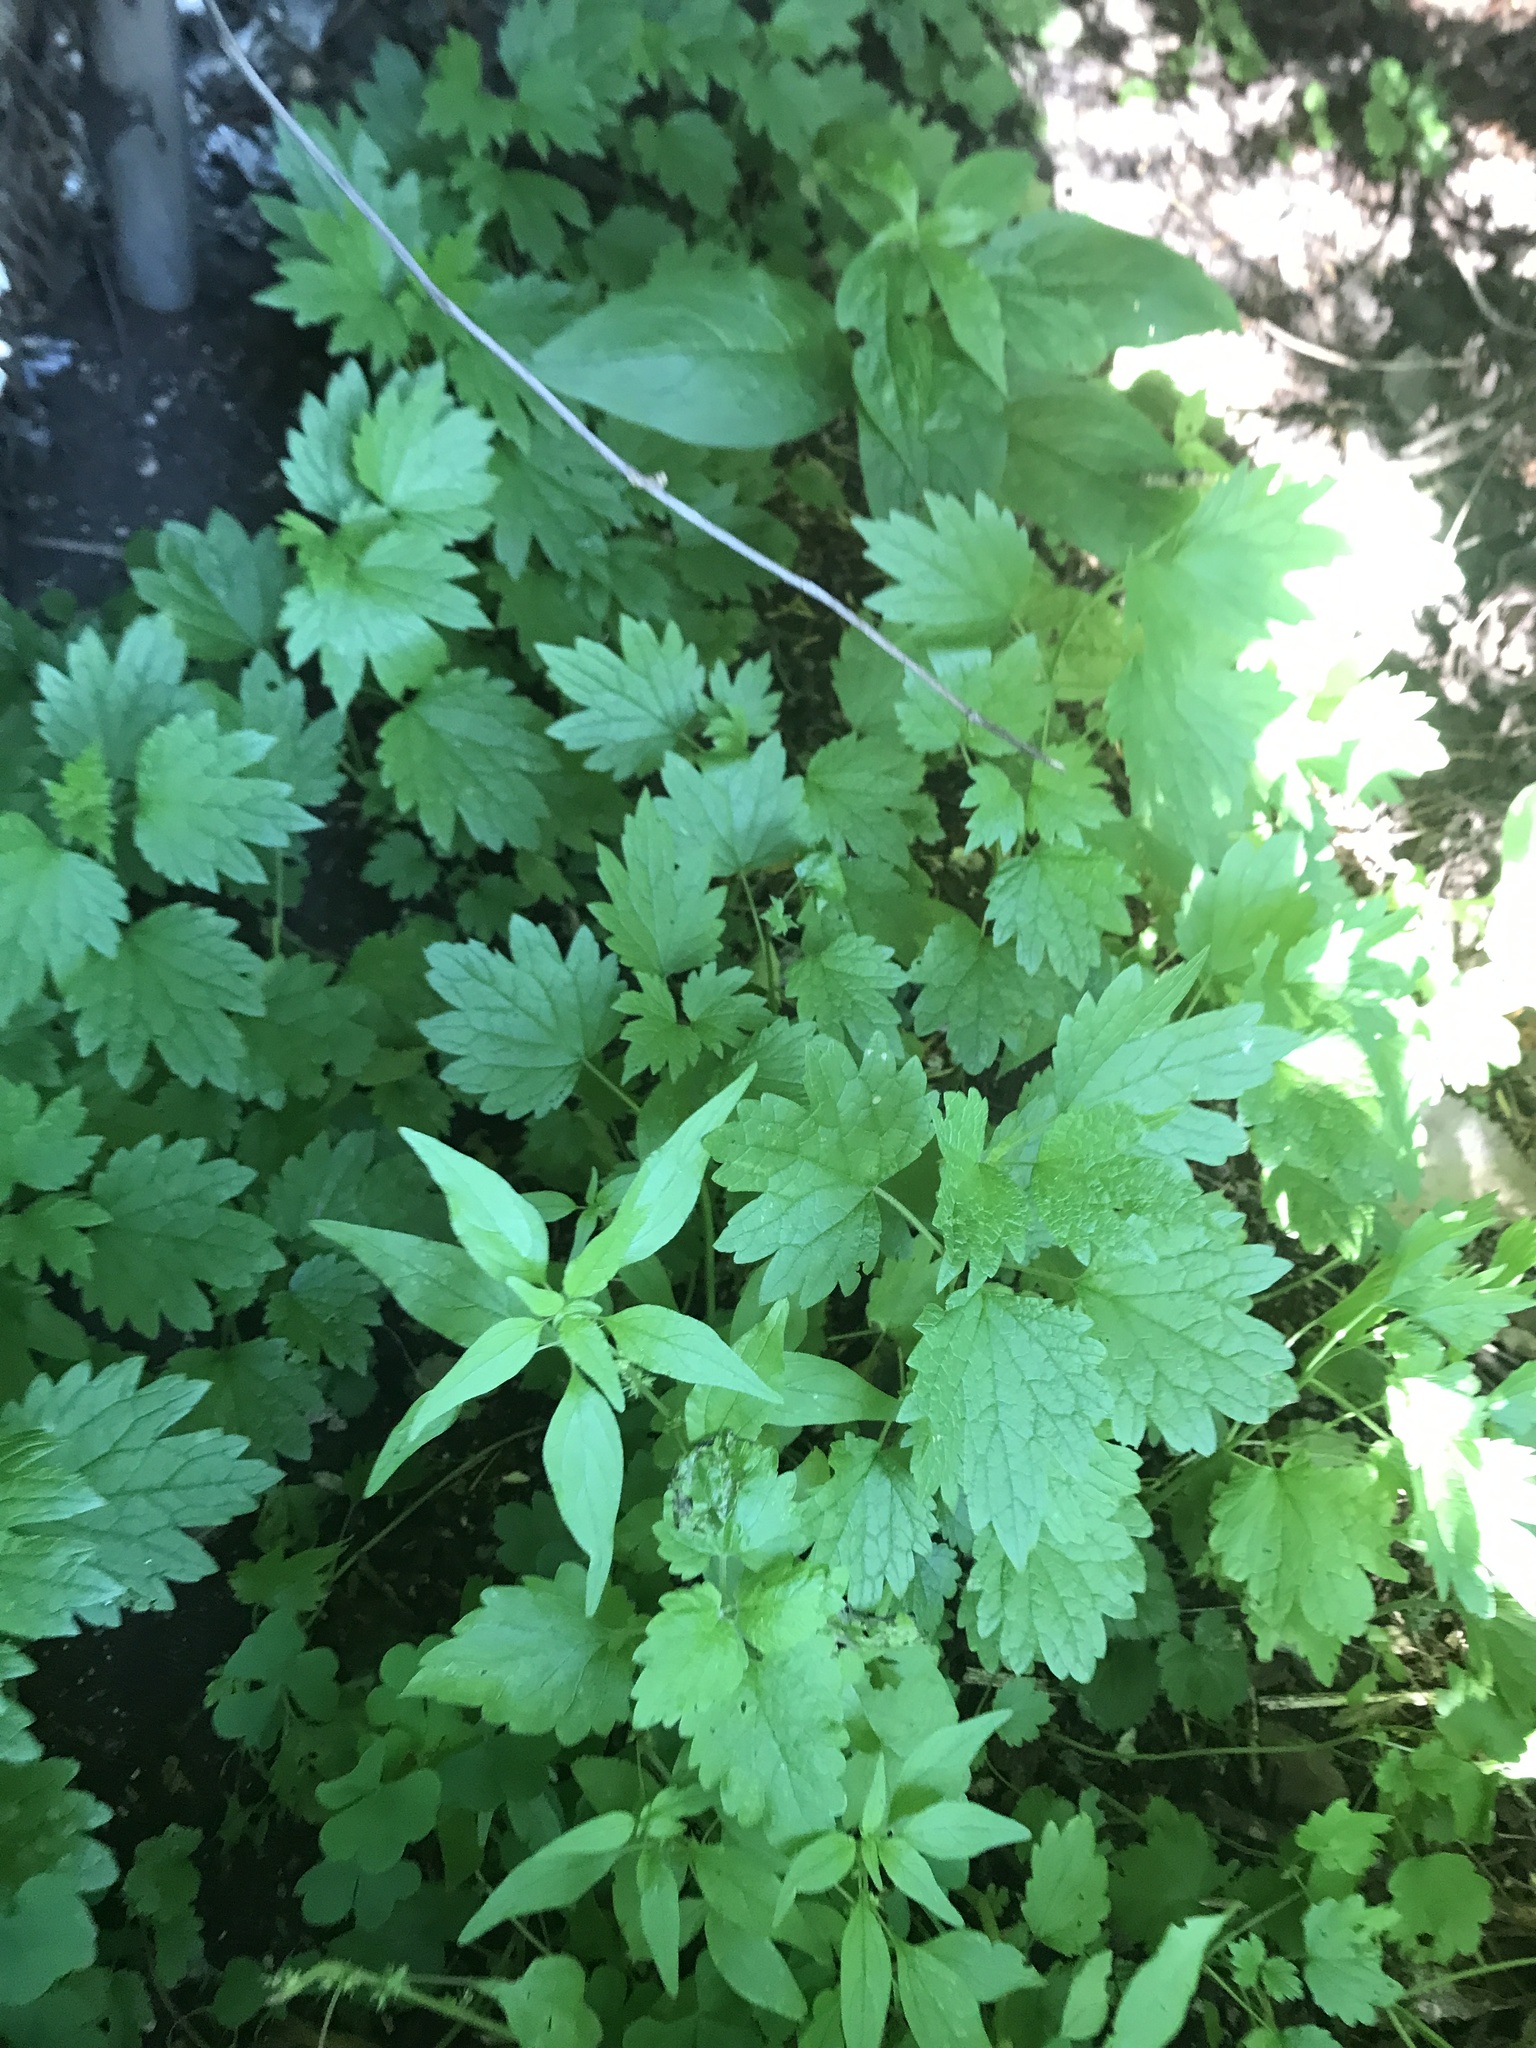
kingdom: Plantae
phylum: Tracheophyta
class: Magnoliopsida
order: Lamiales
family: Lamiaceae
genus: Leonurus
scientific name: Leonurus cardiaca
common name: Motherwort
